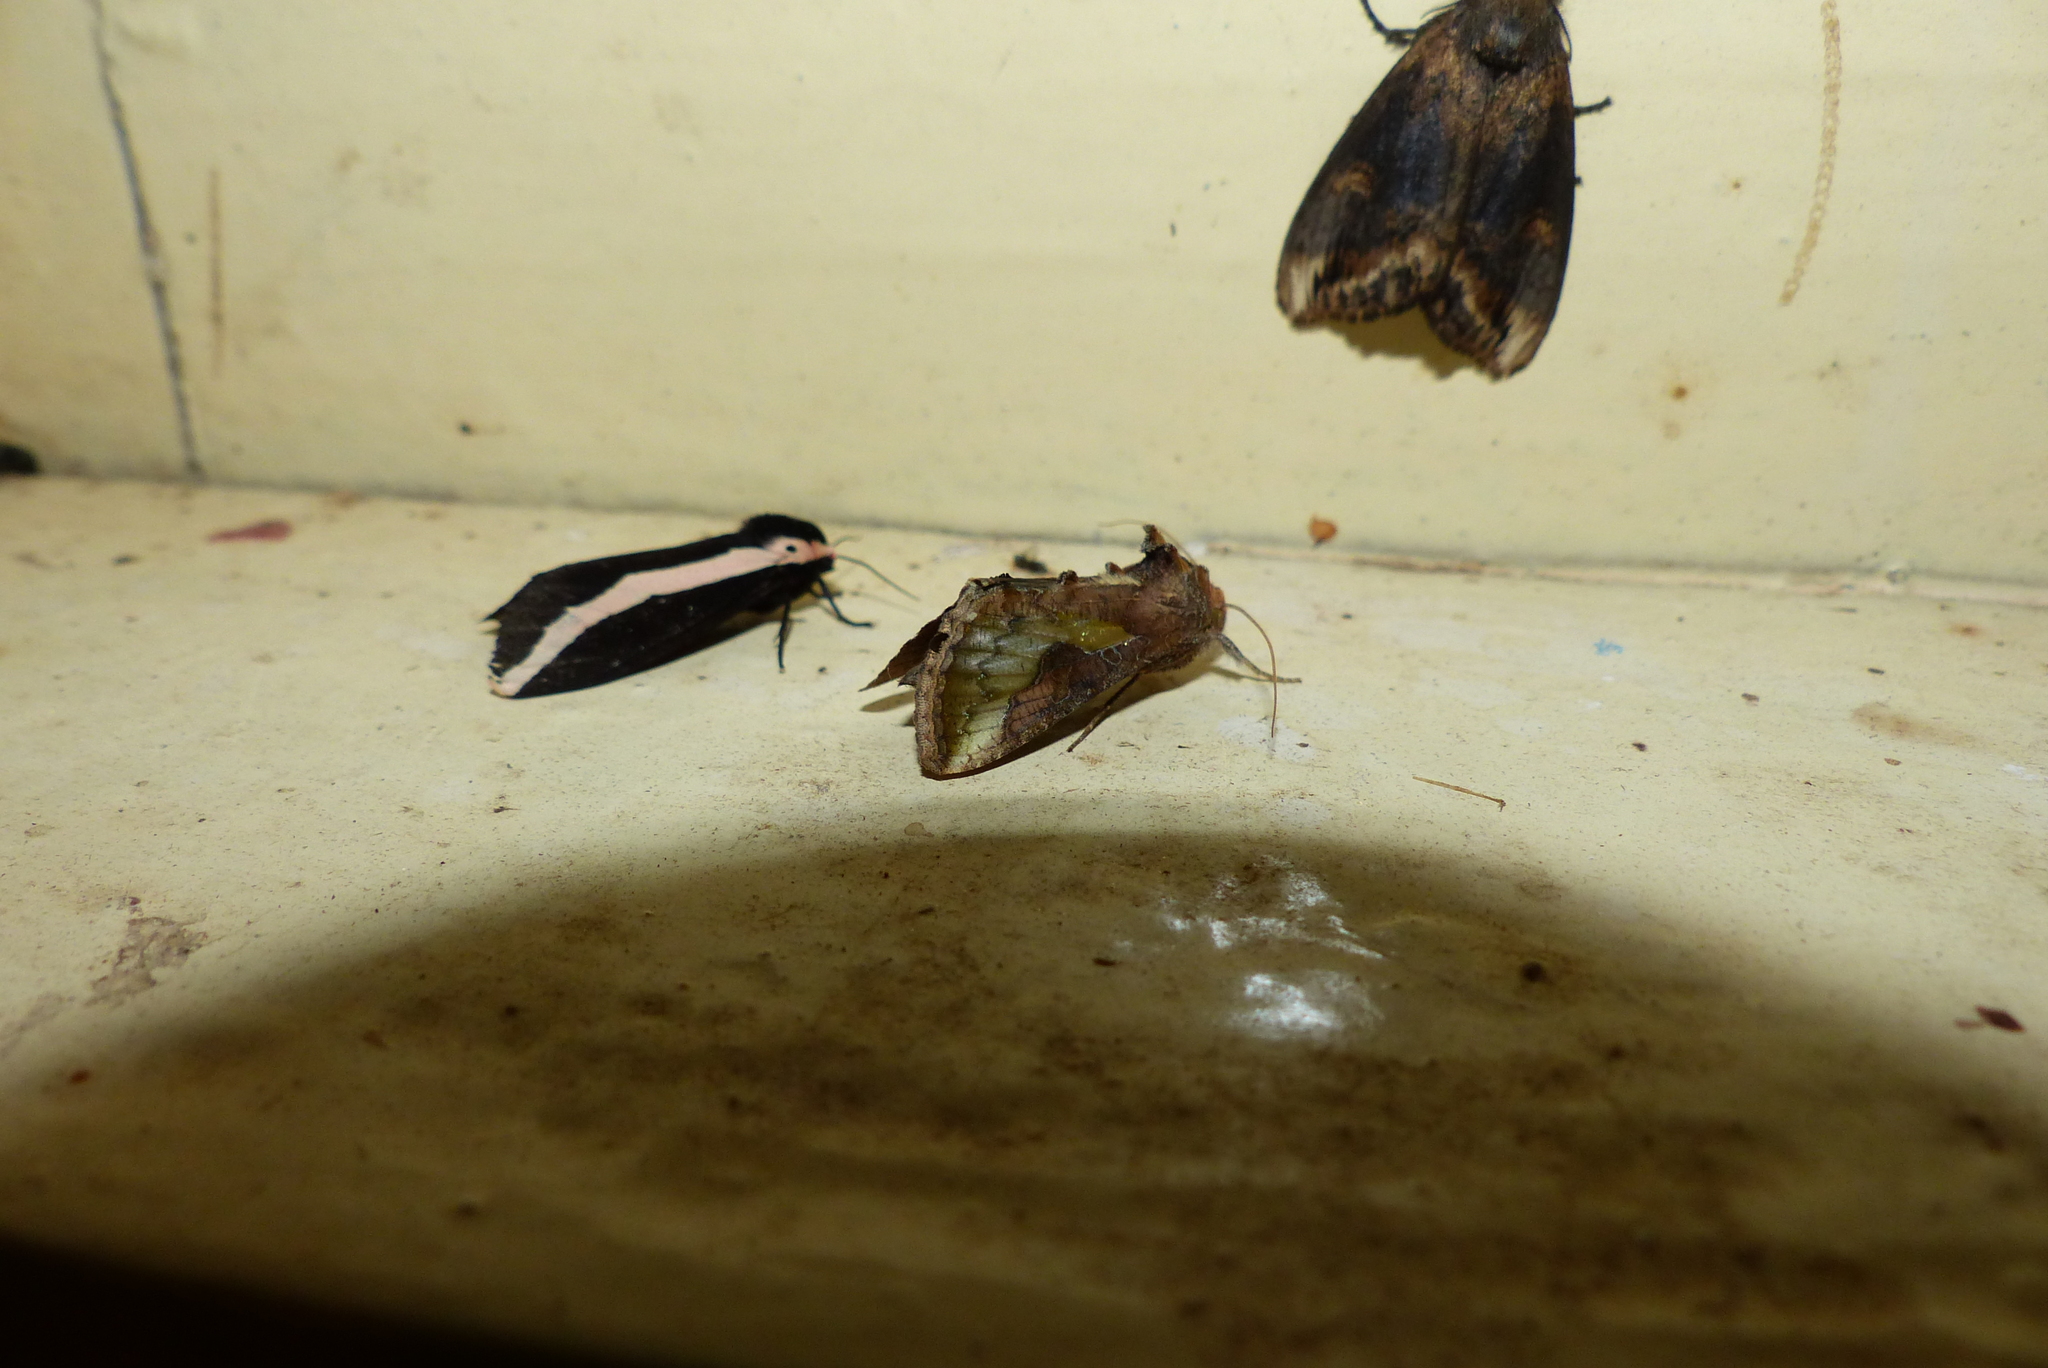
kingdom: Animalia
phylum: Arthropoda
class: Insecta
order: Lepidoptera
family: Noctuidae
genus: Thysanoplusia
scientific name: Thysanoplusia orichalcea
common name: Slender burnished brass, golden plusia
